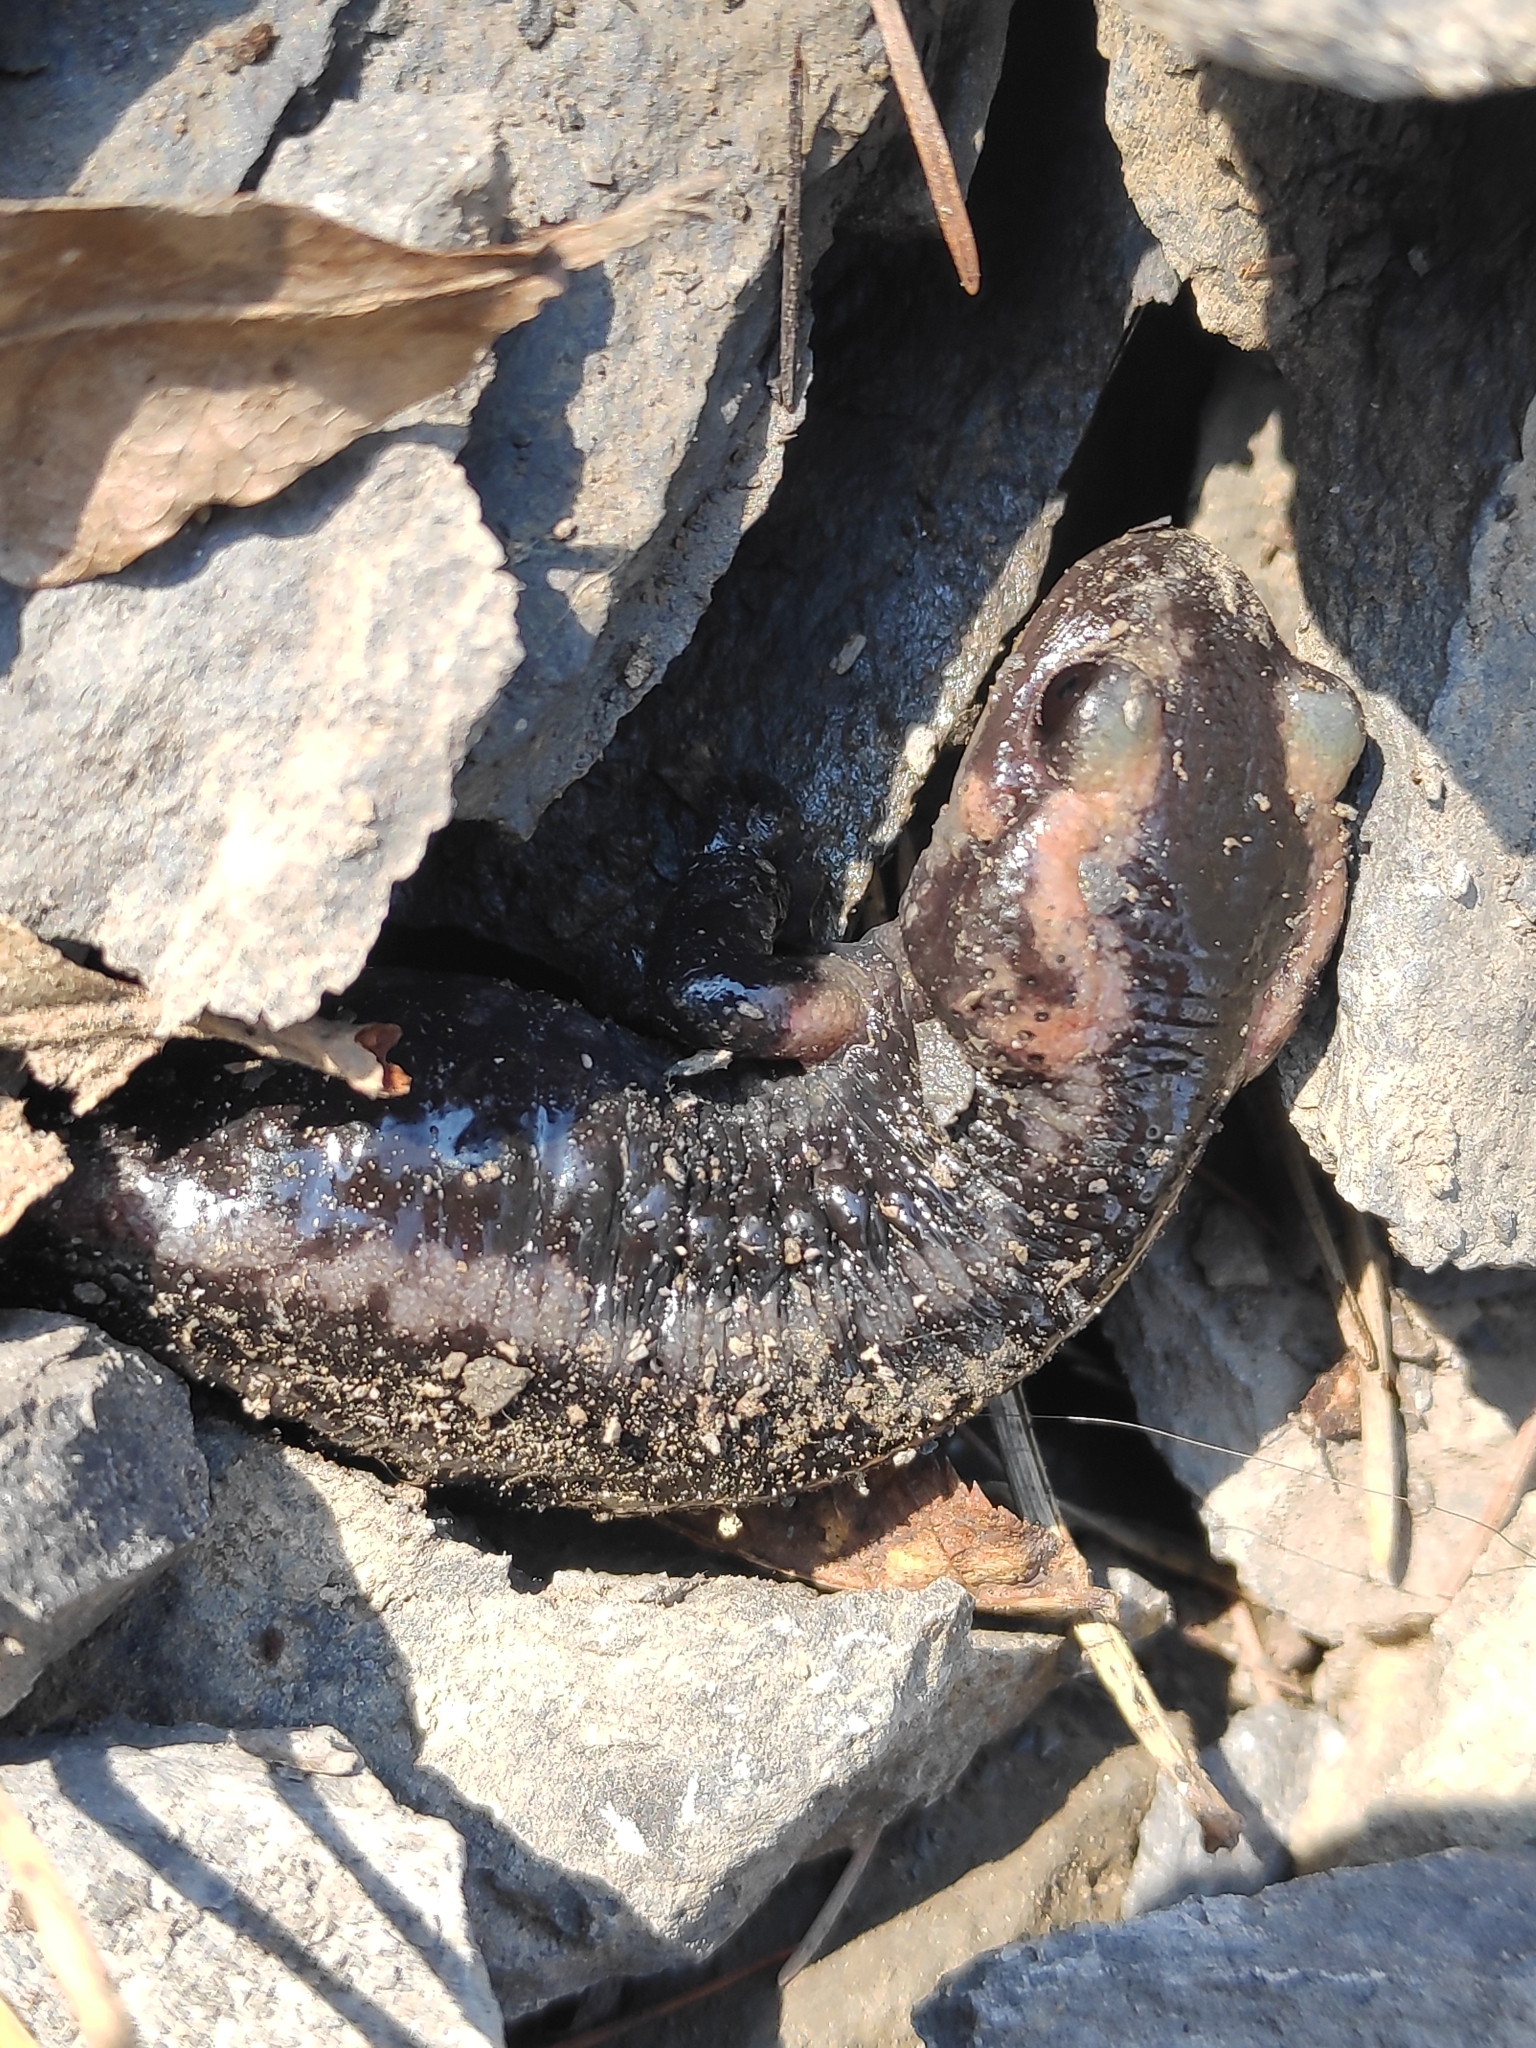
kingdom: Animalia
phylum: Chordata
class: Amphibia
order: Caudata
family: Salamandridae
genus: Salamandra
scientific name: Salamandra salamandra
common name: Fire salamander
